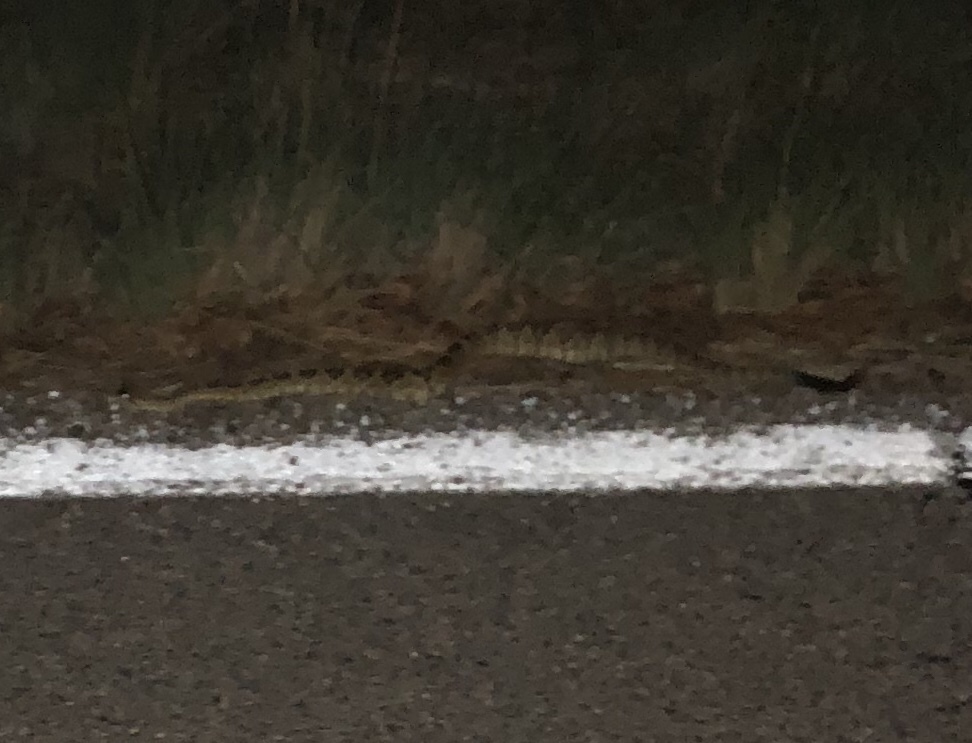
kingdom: Animalia
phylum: Chordata
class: Squamata
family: Viperidae
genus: Crotalus
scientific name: Crotalus molossus
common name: Black tailed rattlesnake
